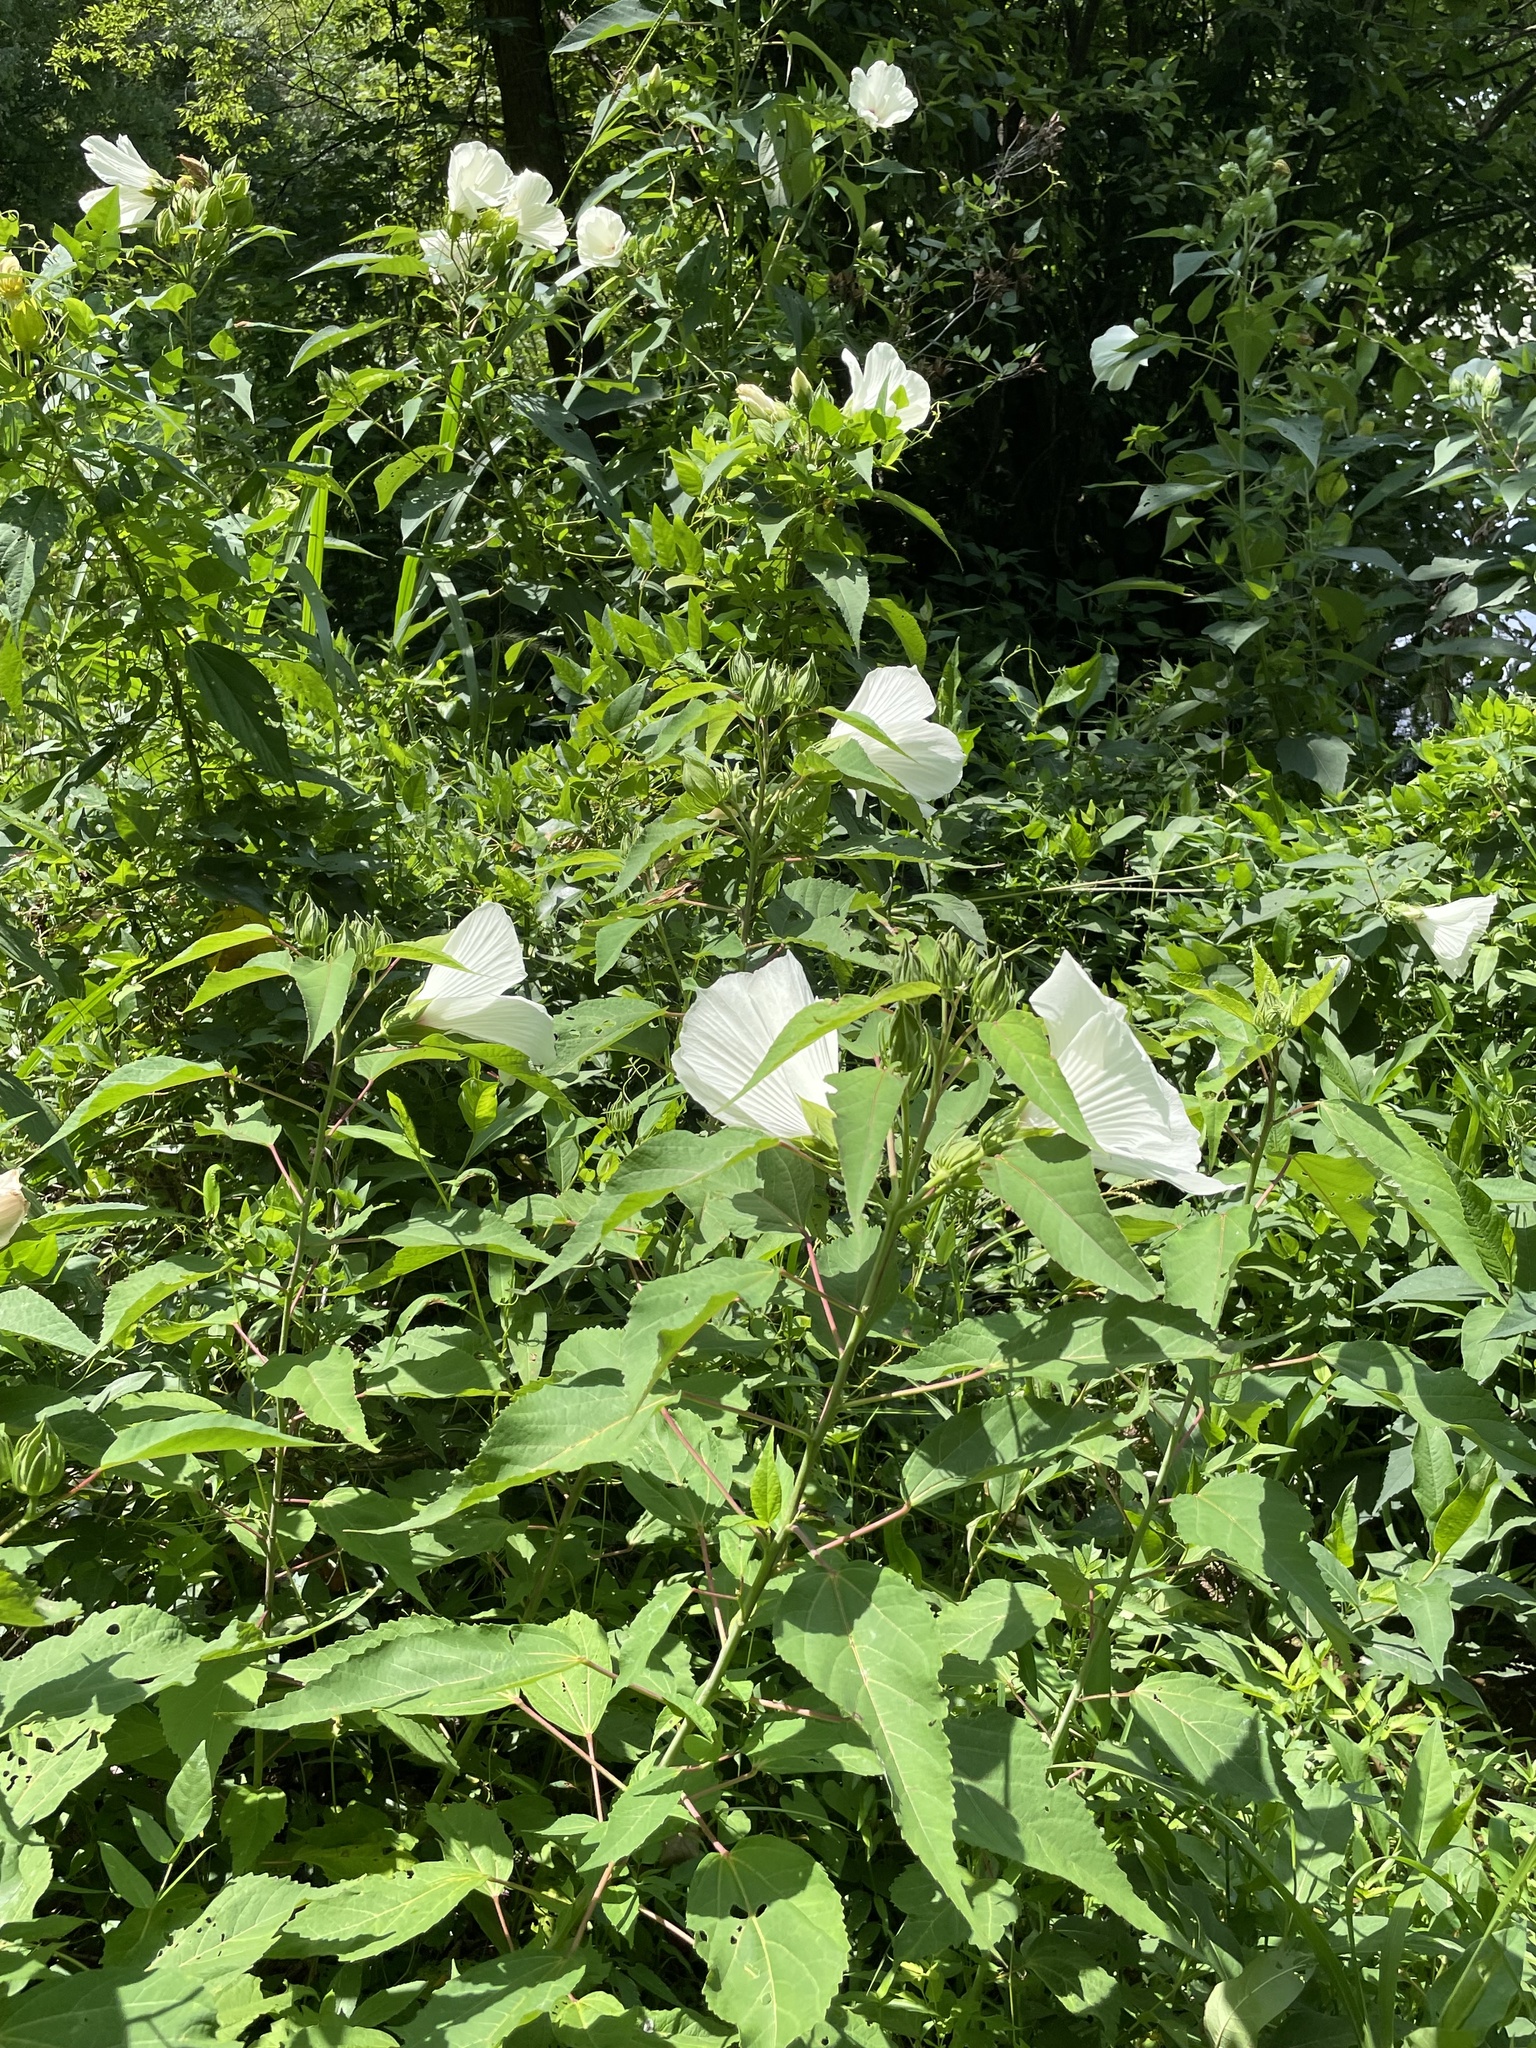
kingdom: Plantae
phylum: Tracheophyta
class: Magnoliopsida
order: Malvales
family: Malvaceae
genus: Hibiscus
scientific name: Hibiscus moscheutos
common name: Common rose-mallow
